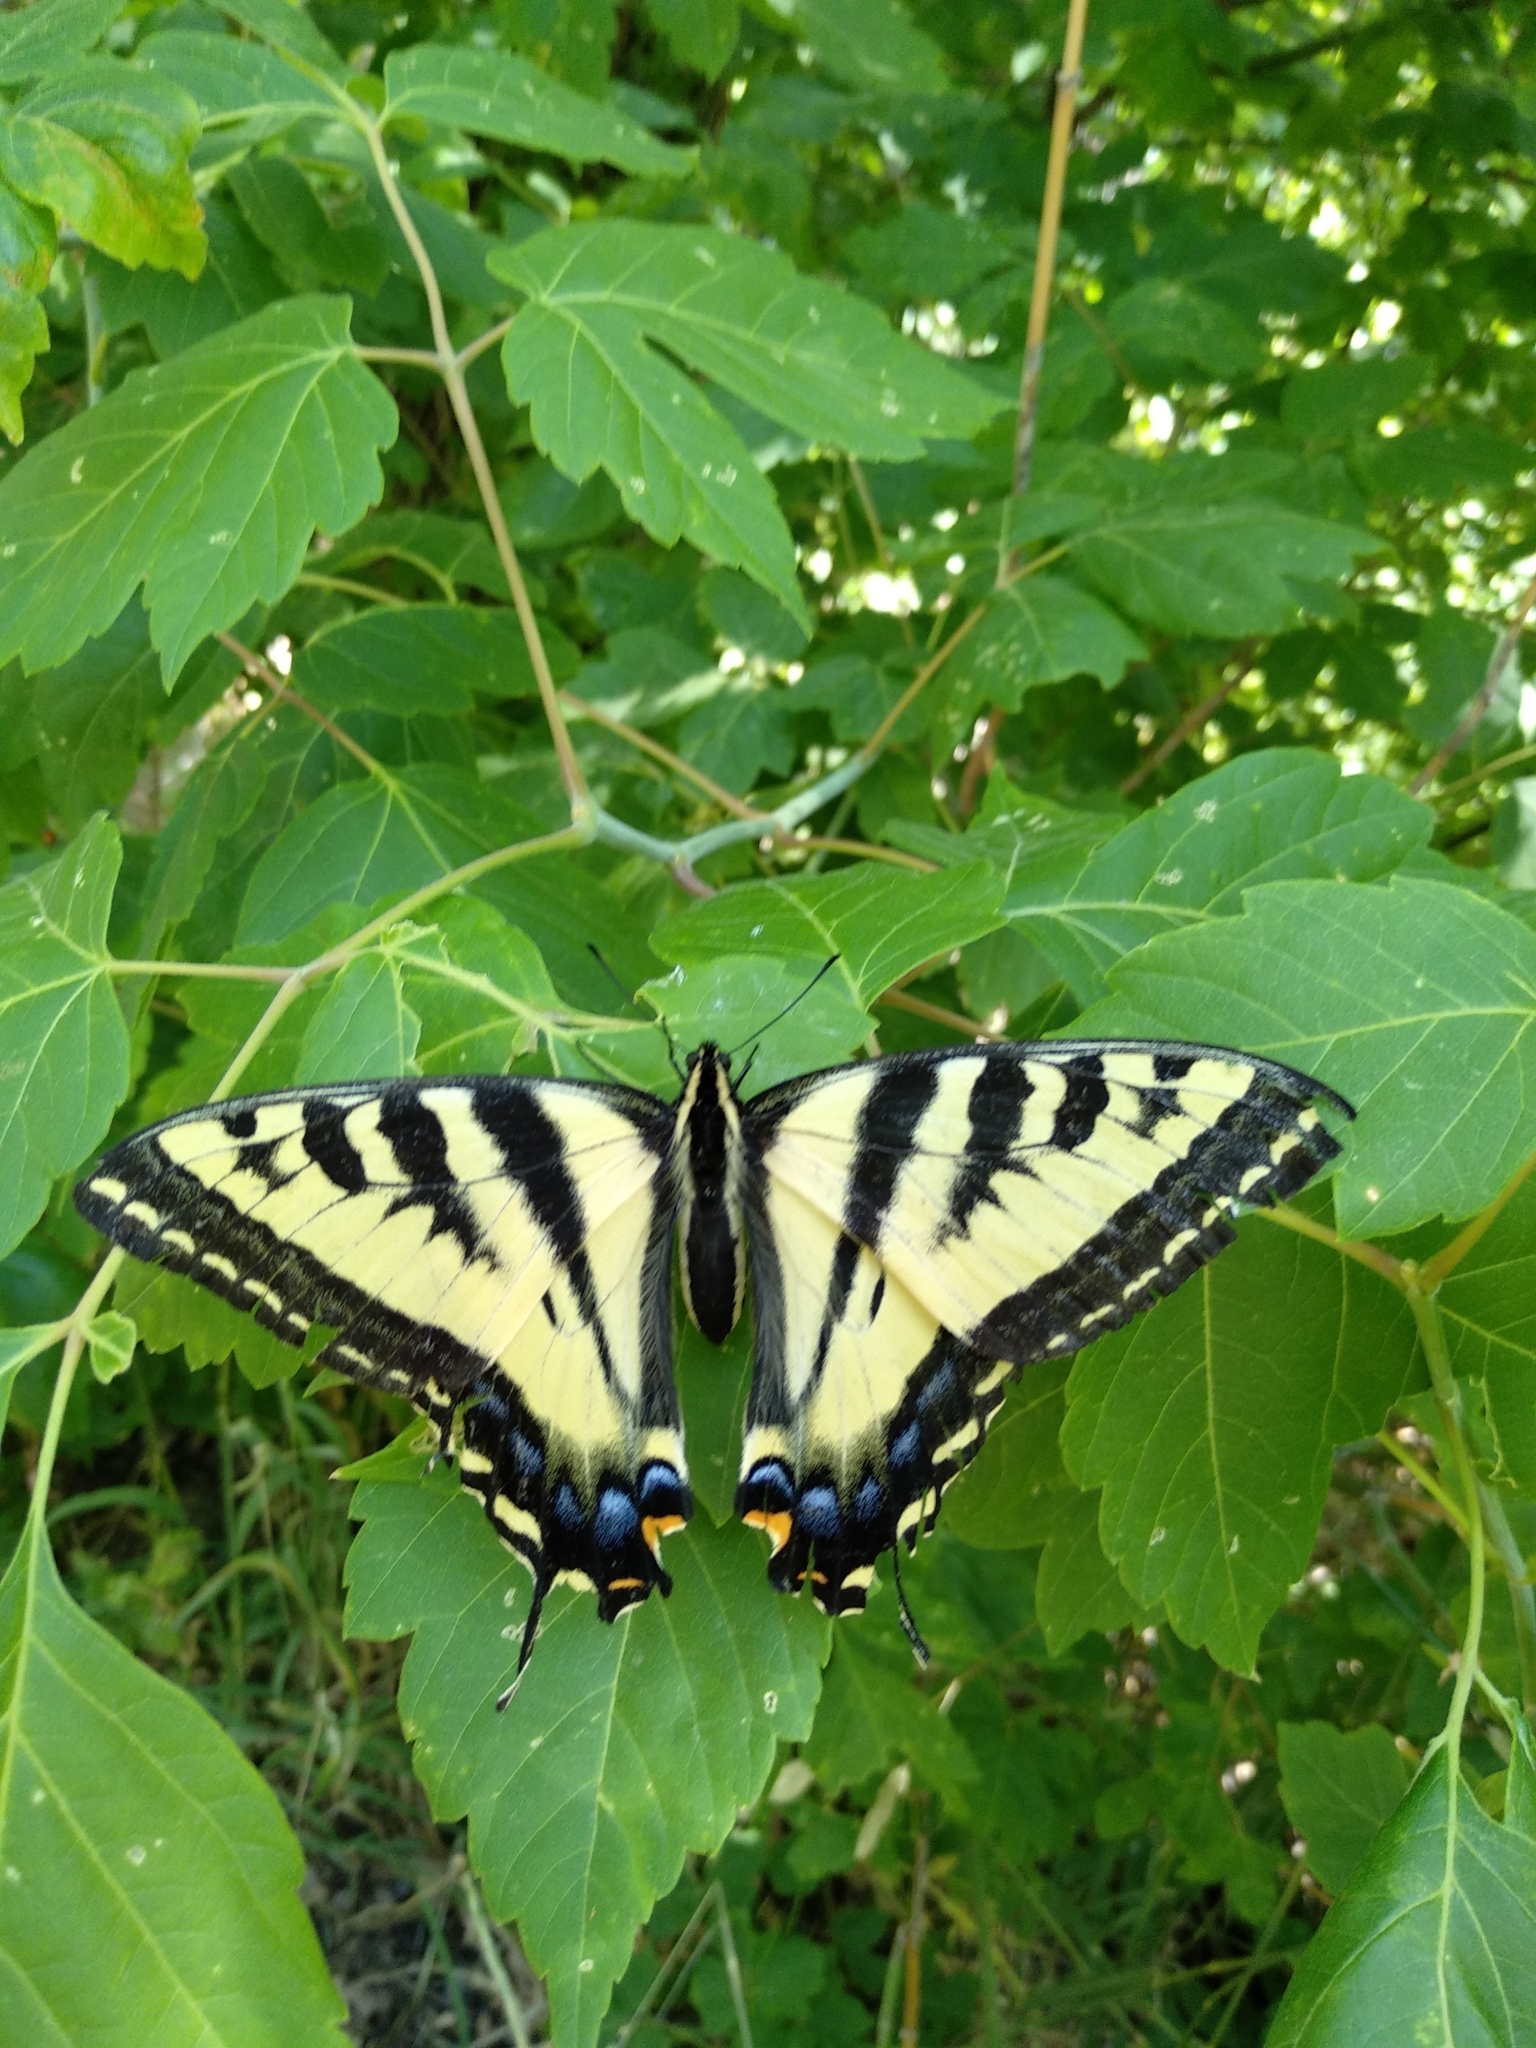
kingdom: Animalia
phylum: Arthropoda
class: Insecta
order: Lepidoptera
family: Papilionidae
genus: Papilio
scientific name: Papilio rutulus
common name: Western tiger swallowtail
